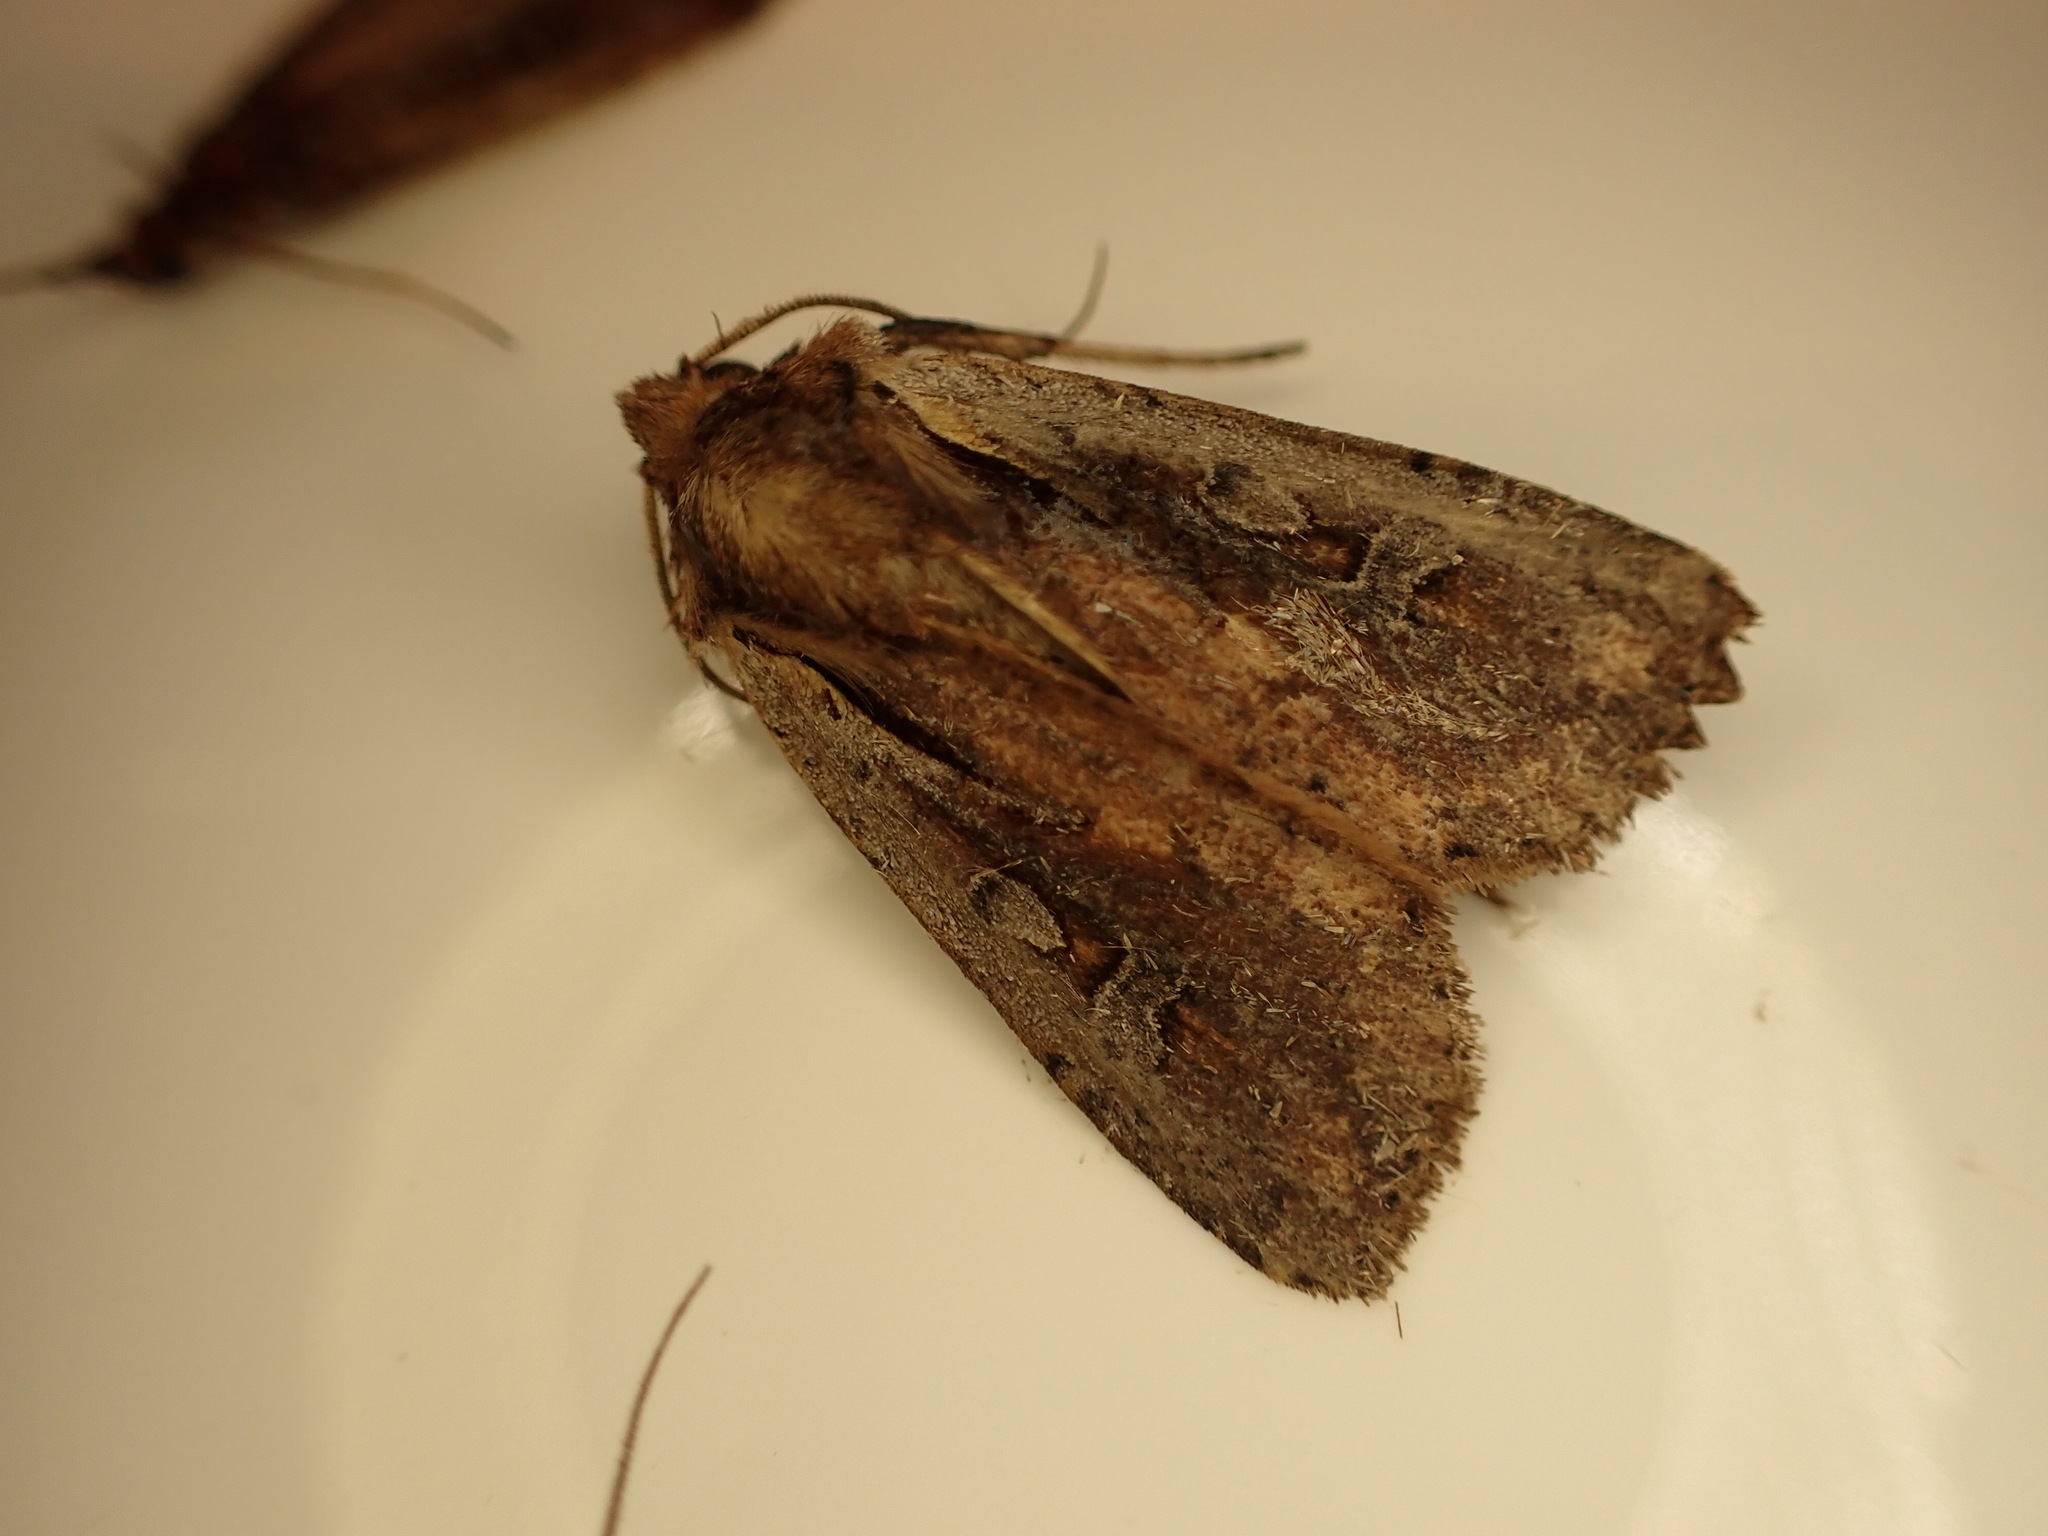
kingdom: Animalia
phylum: Arthropoda
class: Insecta
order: Lepidoptera
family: Noctuidae
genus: Ichneutica
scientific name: Ichneutica atristriga
